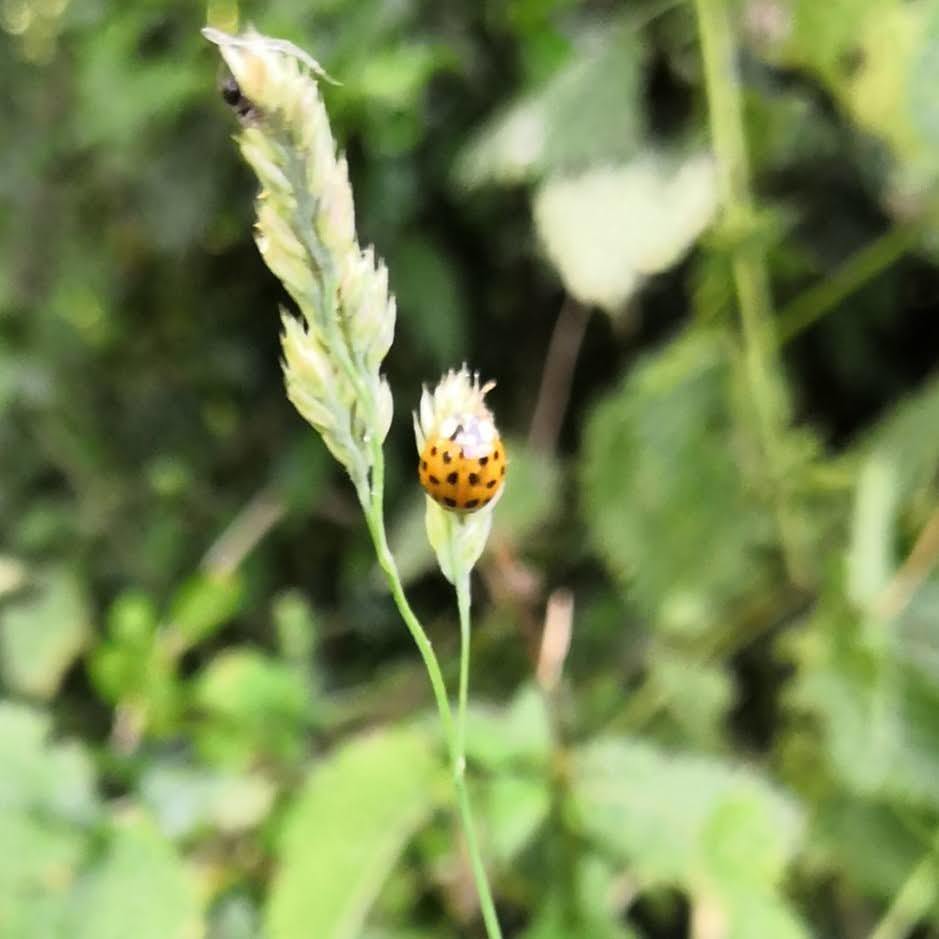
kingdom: Animalia
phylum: Arthropoda
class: Insecta
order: Coleoptera
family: Coccinellidae
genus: Harmonia
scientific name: Harmonia axyridis
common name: Harlequin ladybird
